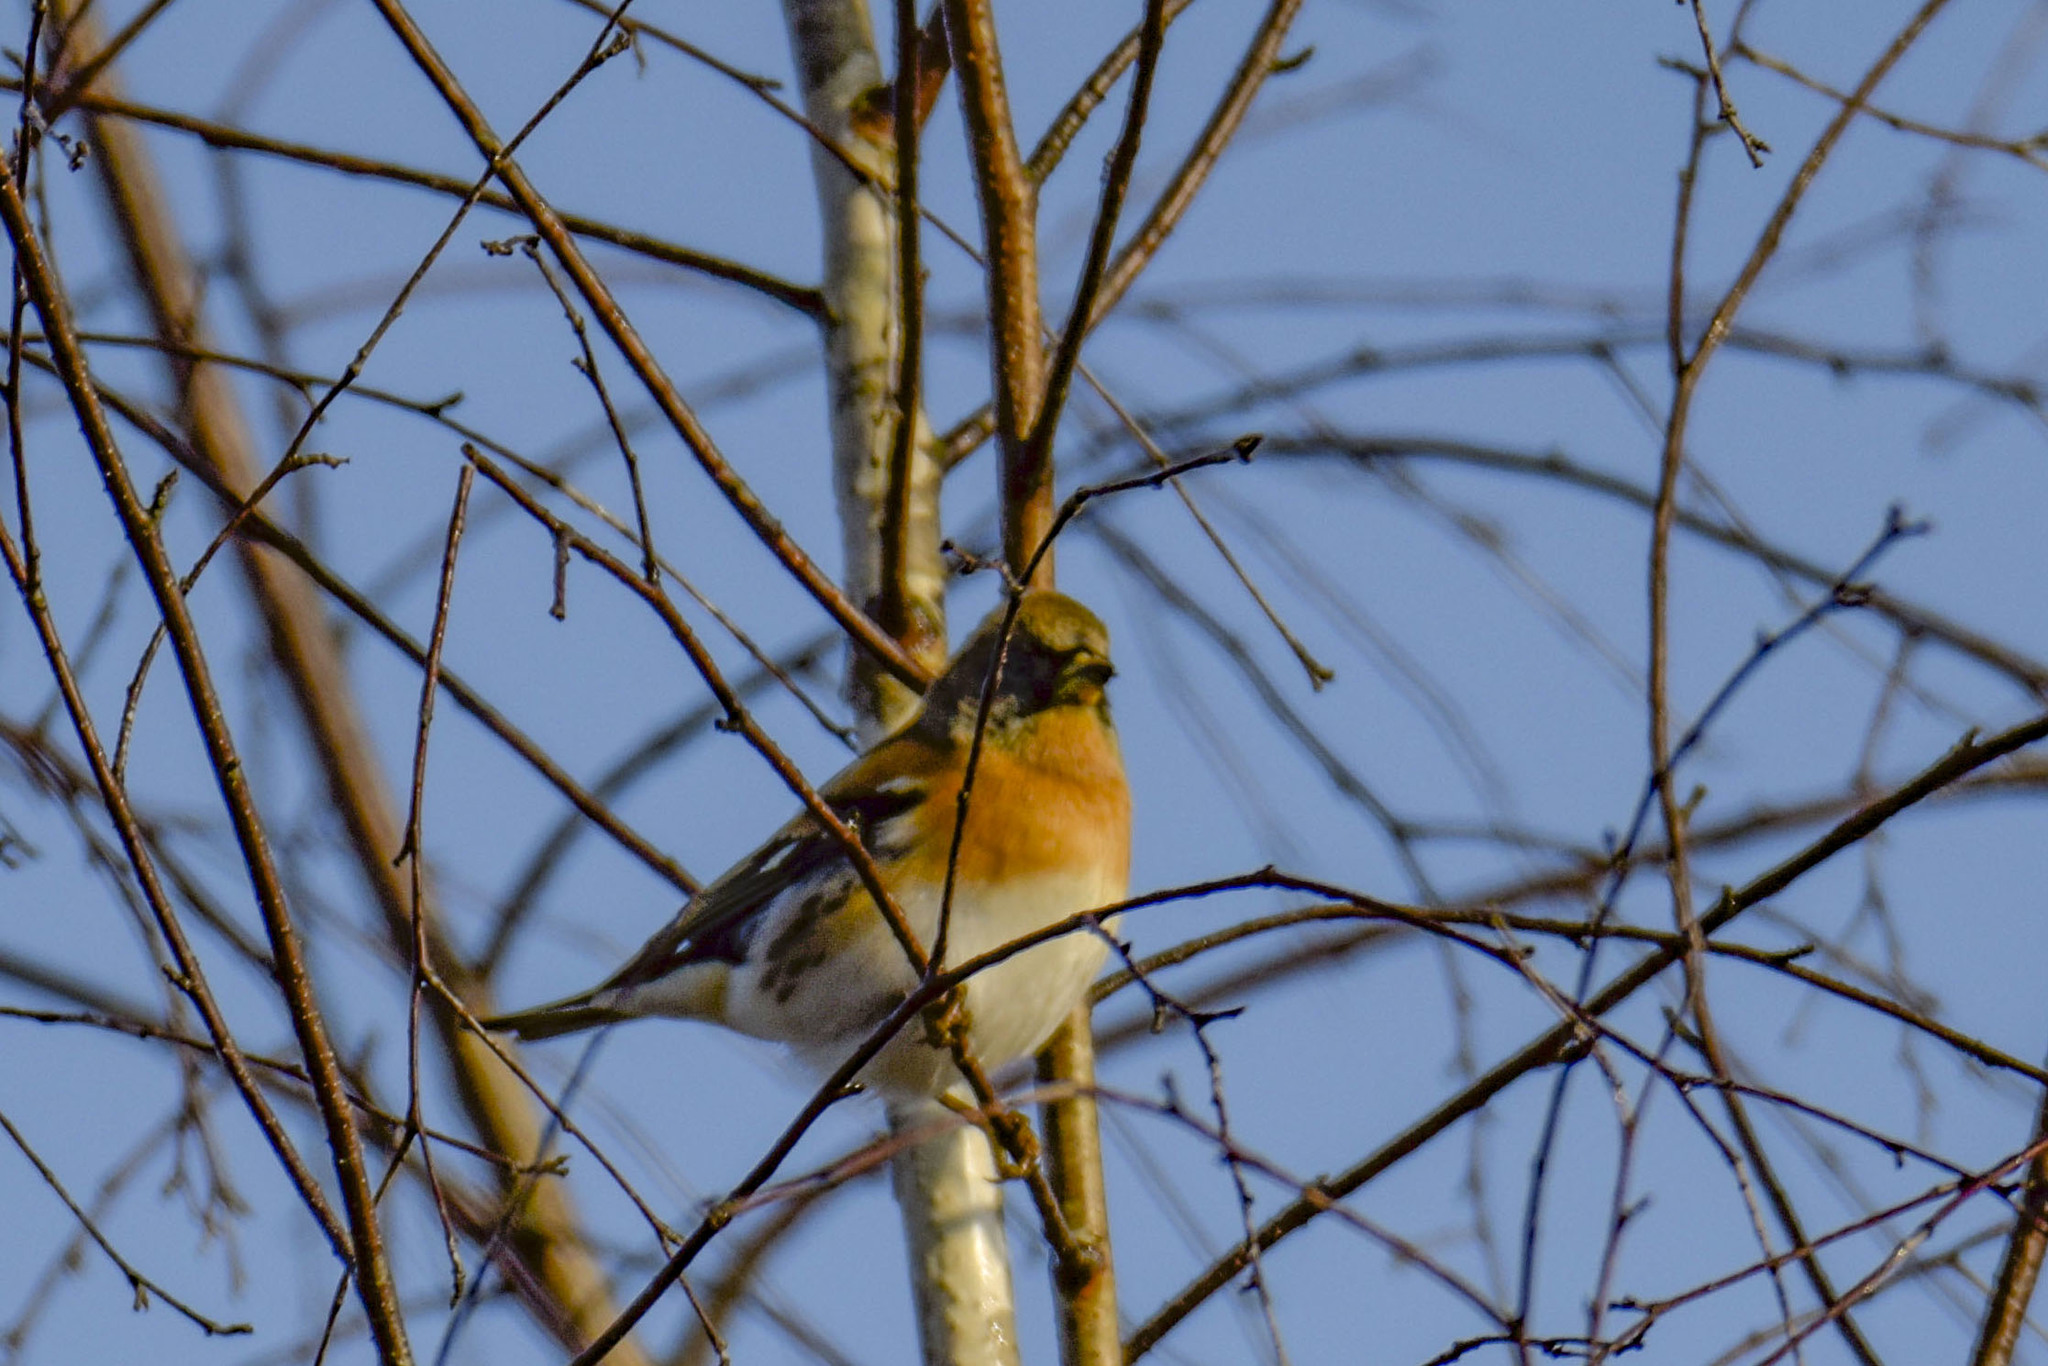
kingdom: Animalia
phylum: Chordata
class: Aves
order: Passeriformes
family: Fringillidae
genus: Fringilla
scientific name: Fringilla montifringilla
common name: Brambling
